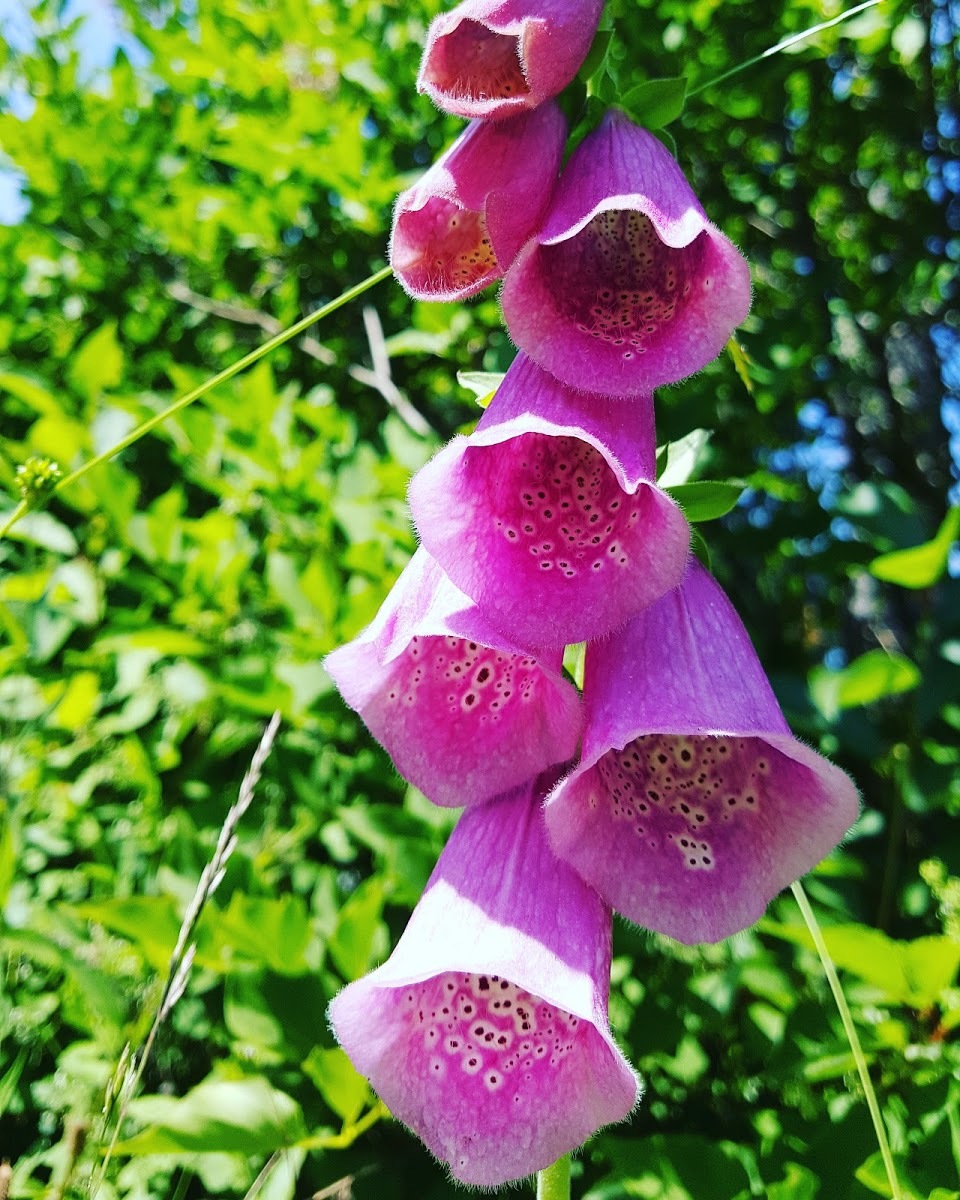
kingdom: Plantae
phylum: Tracheophyta
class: Magnoliopsida
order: Lamiales
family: Plantaginaceae
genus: Digitalis
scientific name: Digitalis purpurea
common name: Foxglove
